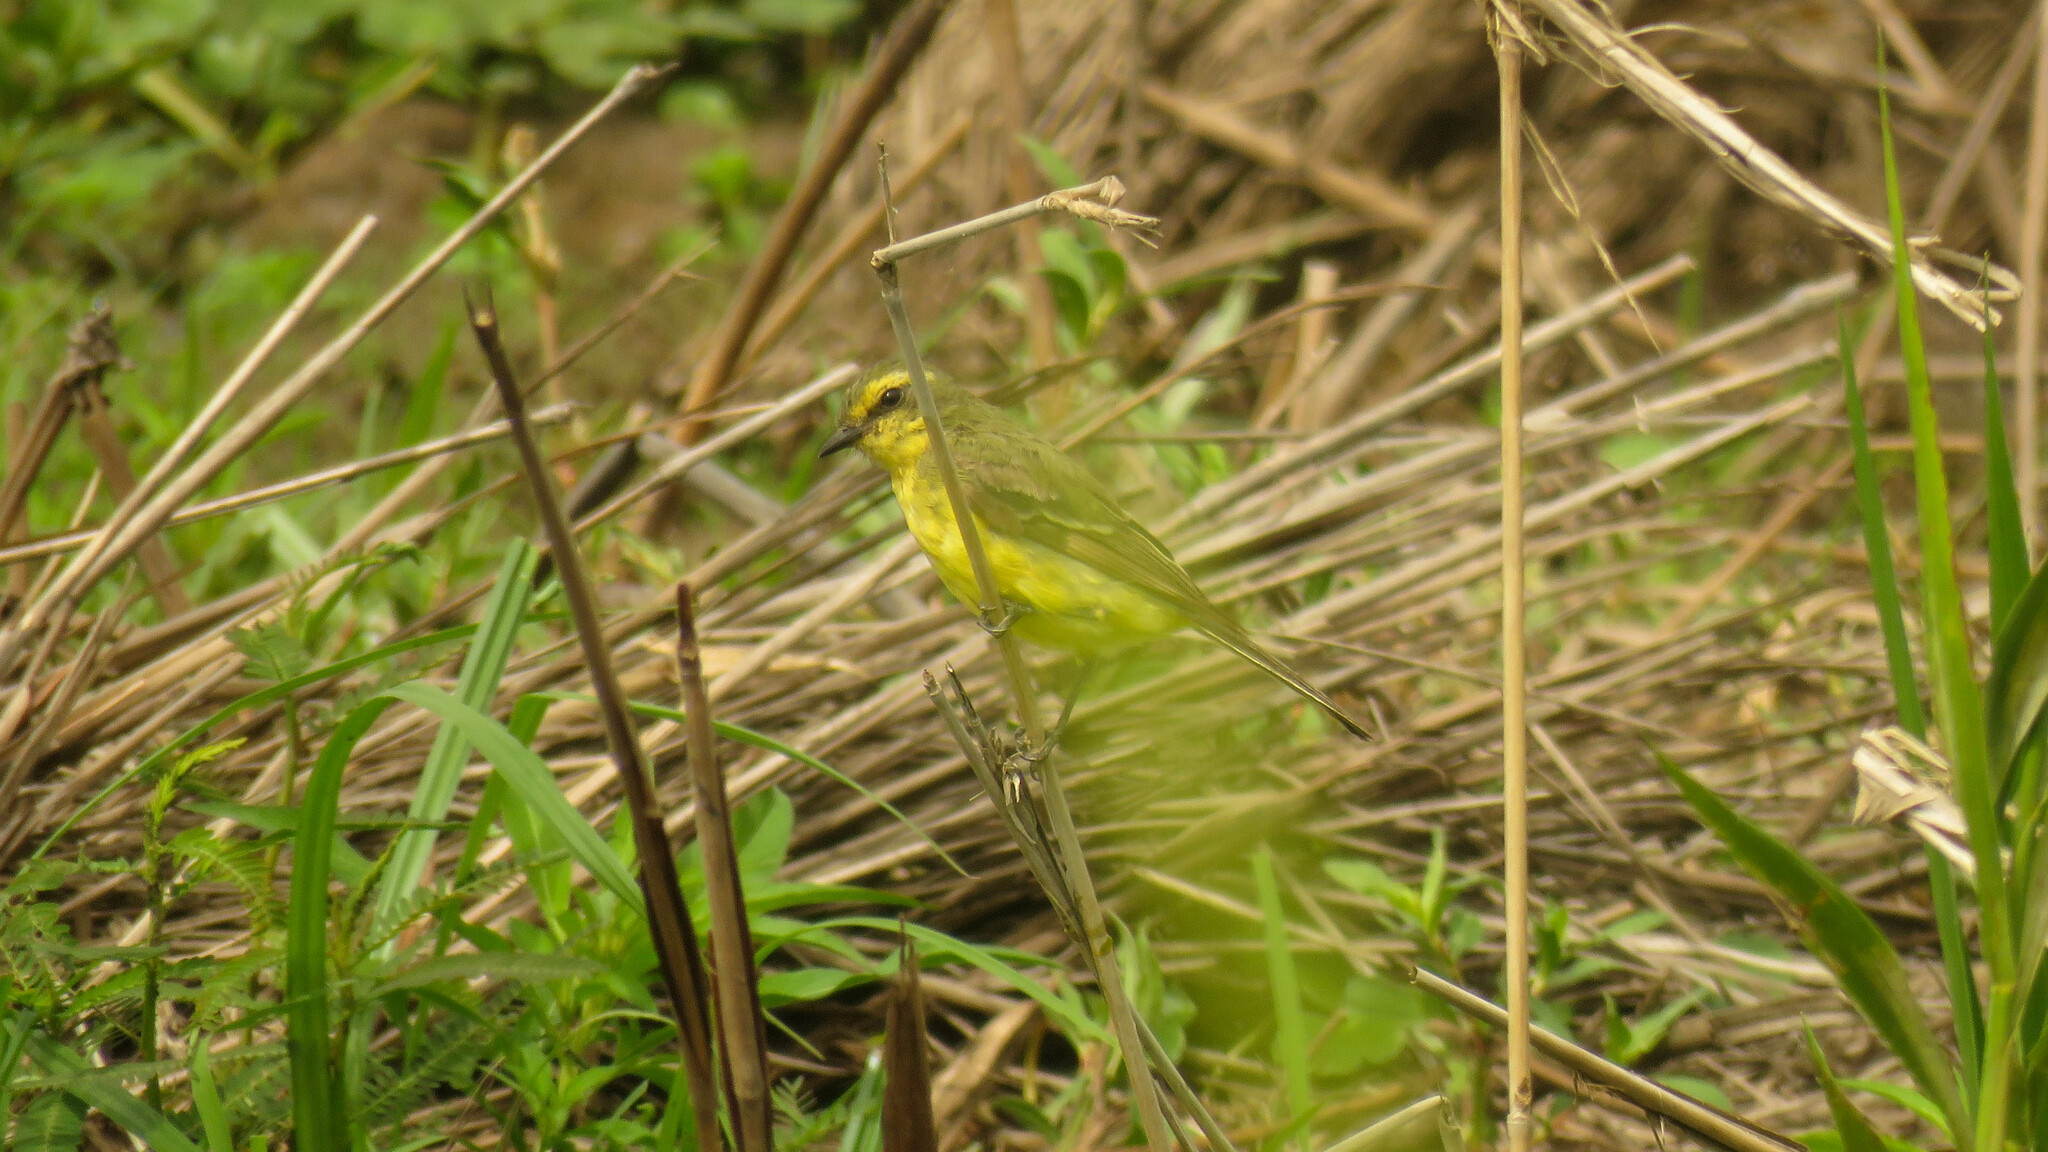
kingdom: Animalia
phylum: Chordata
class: Aves
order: Passeriformes
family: Tyrannidae
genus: Satrapa
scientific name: Satrapa icterophrys
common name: Yellow-browed tyrant
